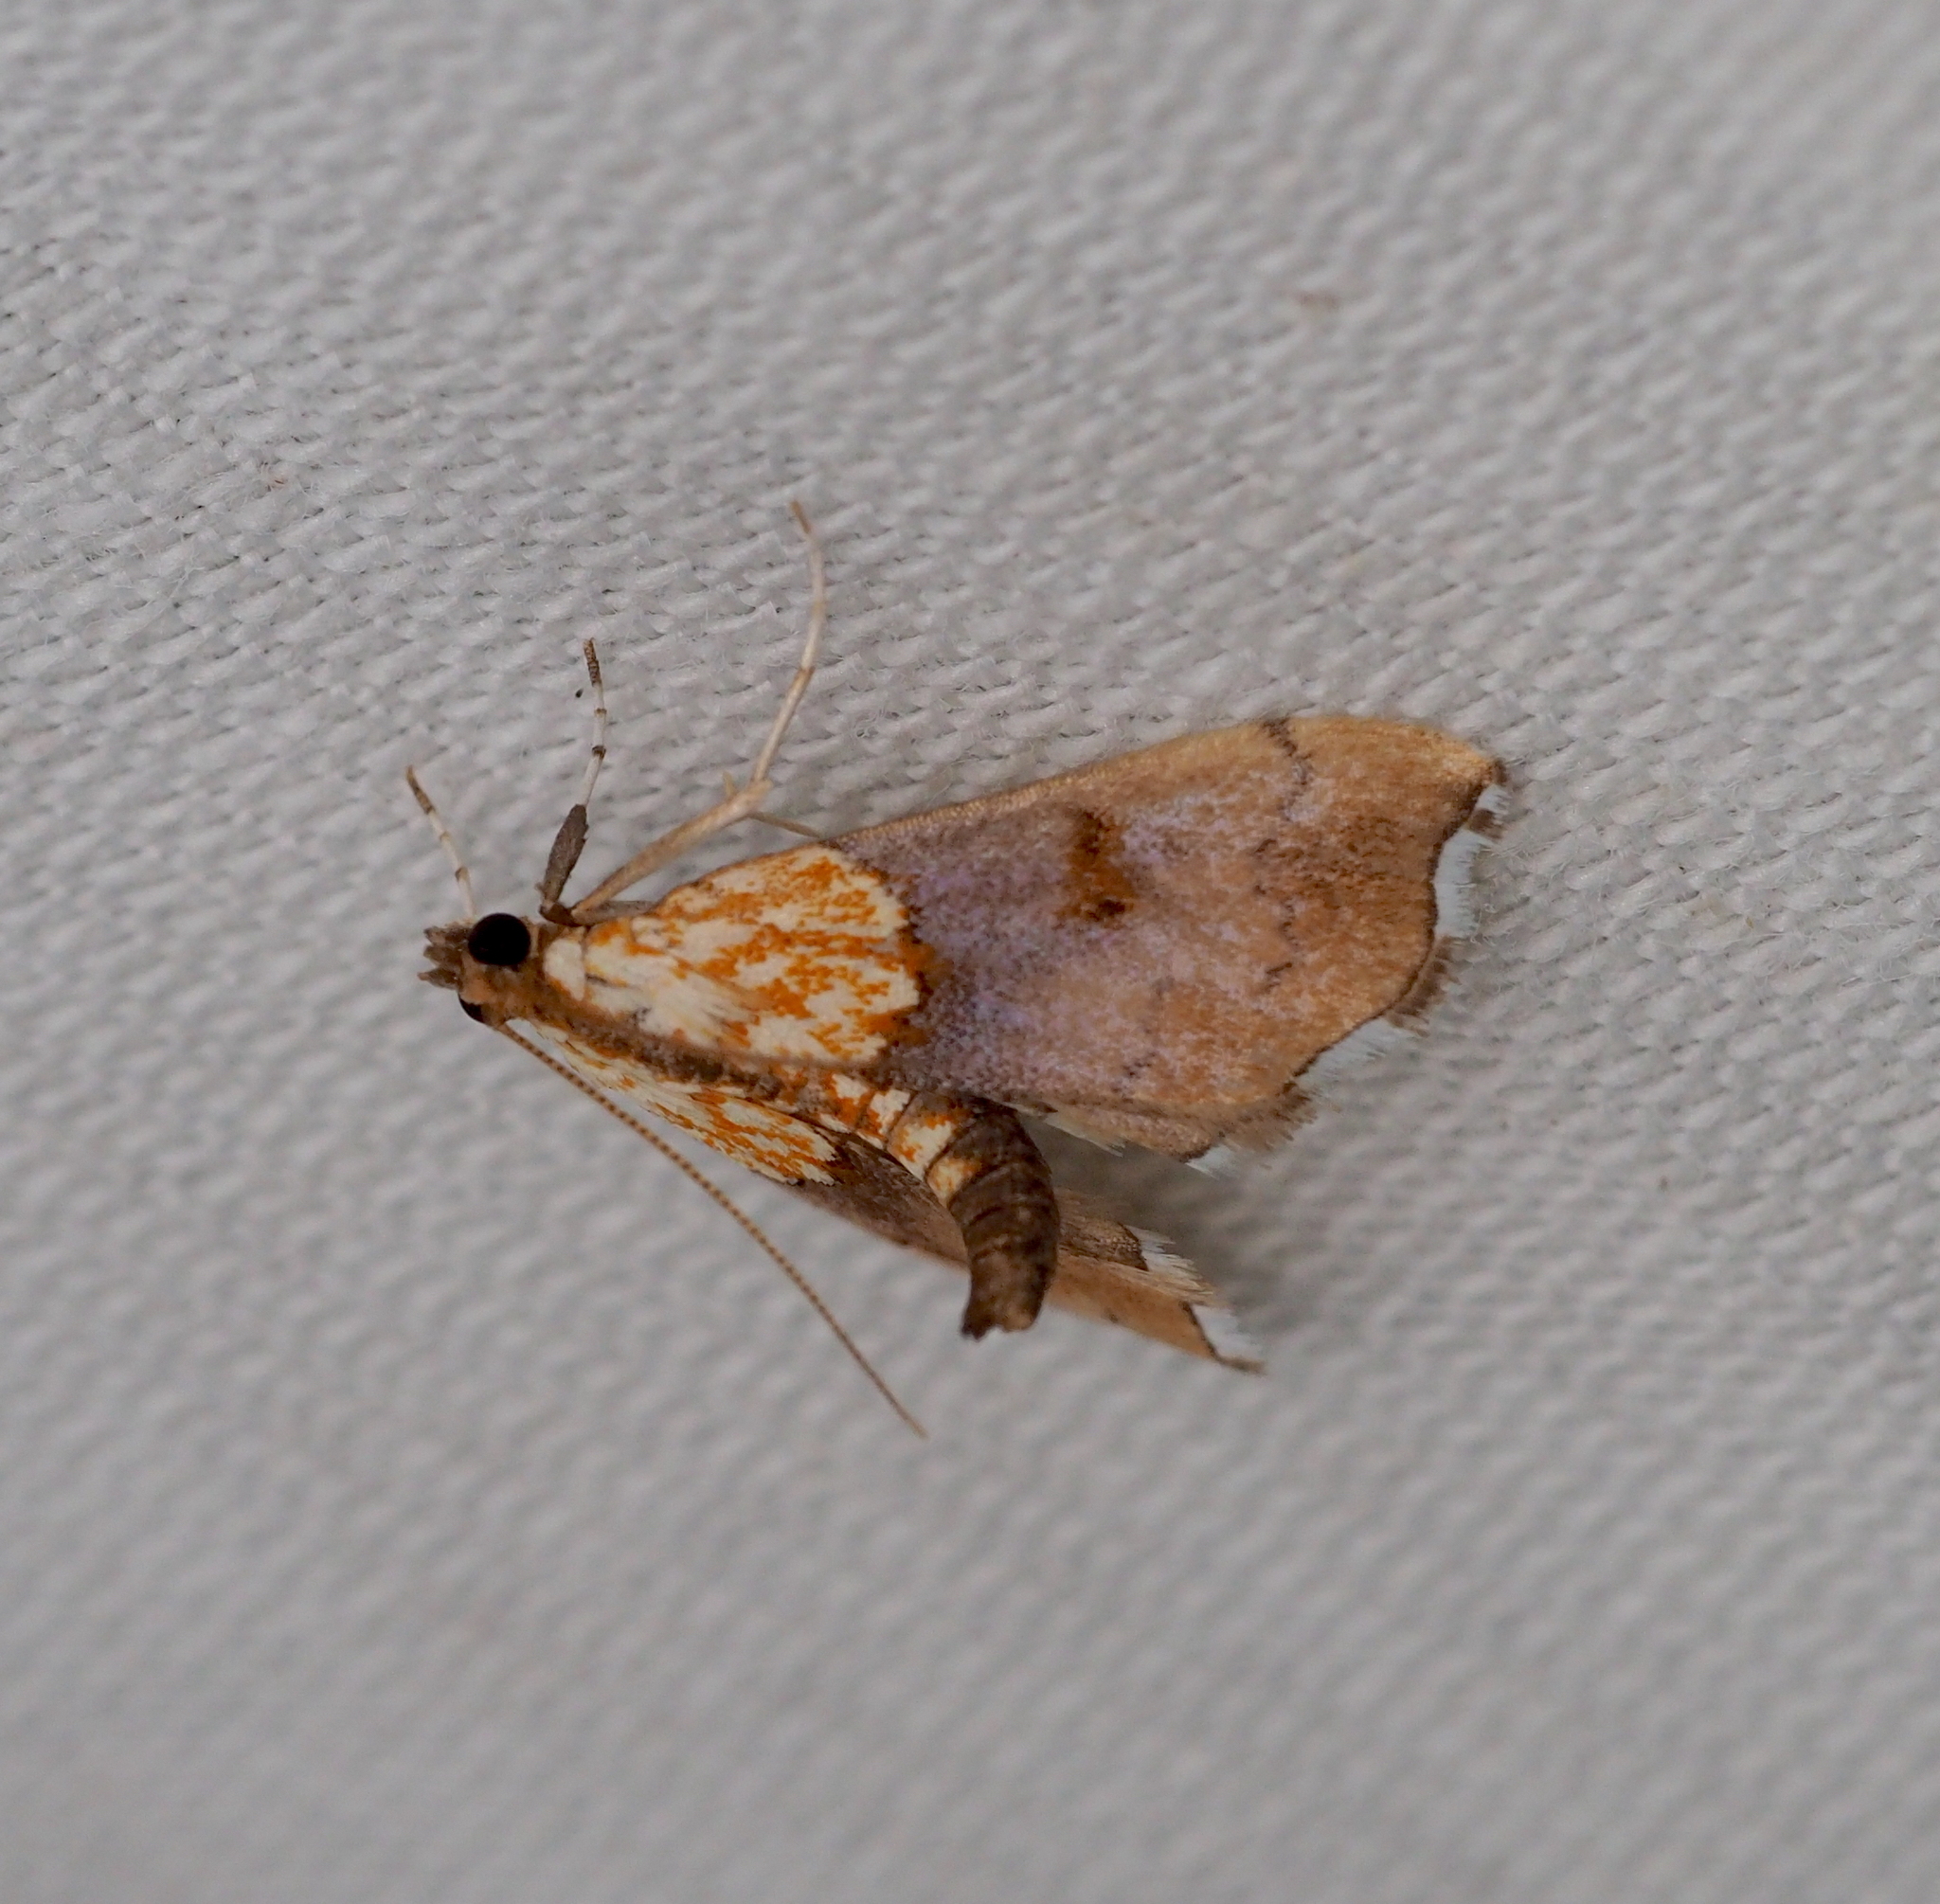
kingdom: Animalia
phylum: Arthropoda
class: Insecta
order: Lepidoptera
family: Crambidae
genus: Agrotera
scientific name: Agrotera nemoralis
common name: Beautiful pearl
